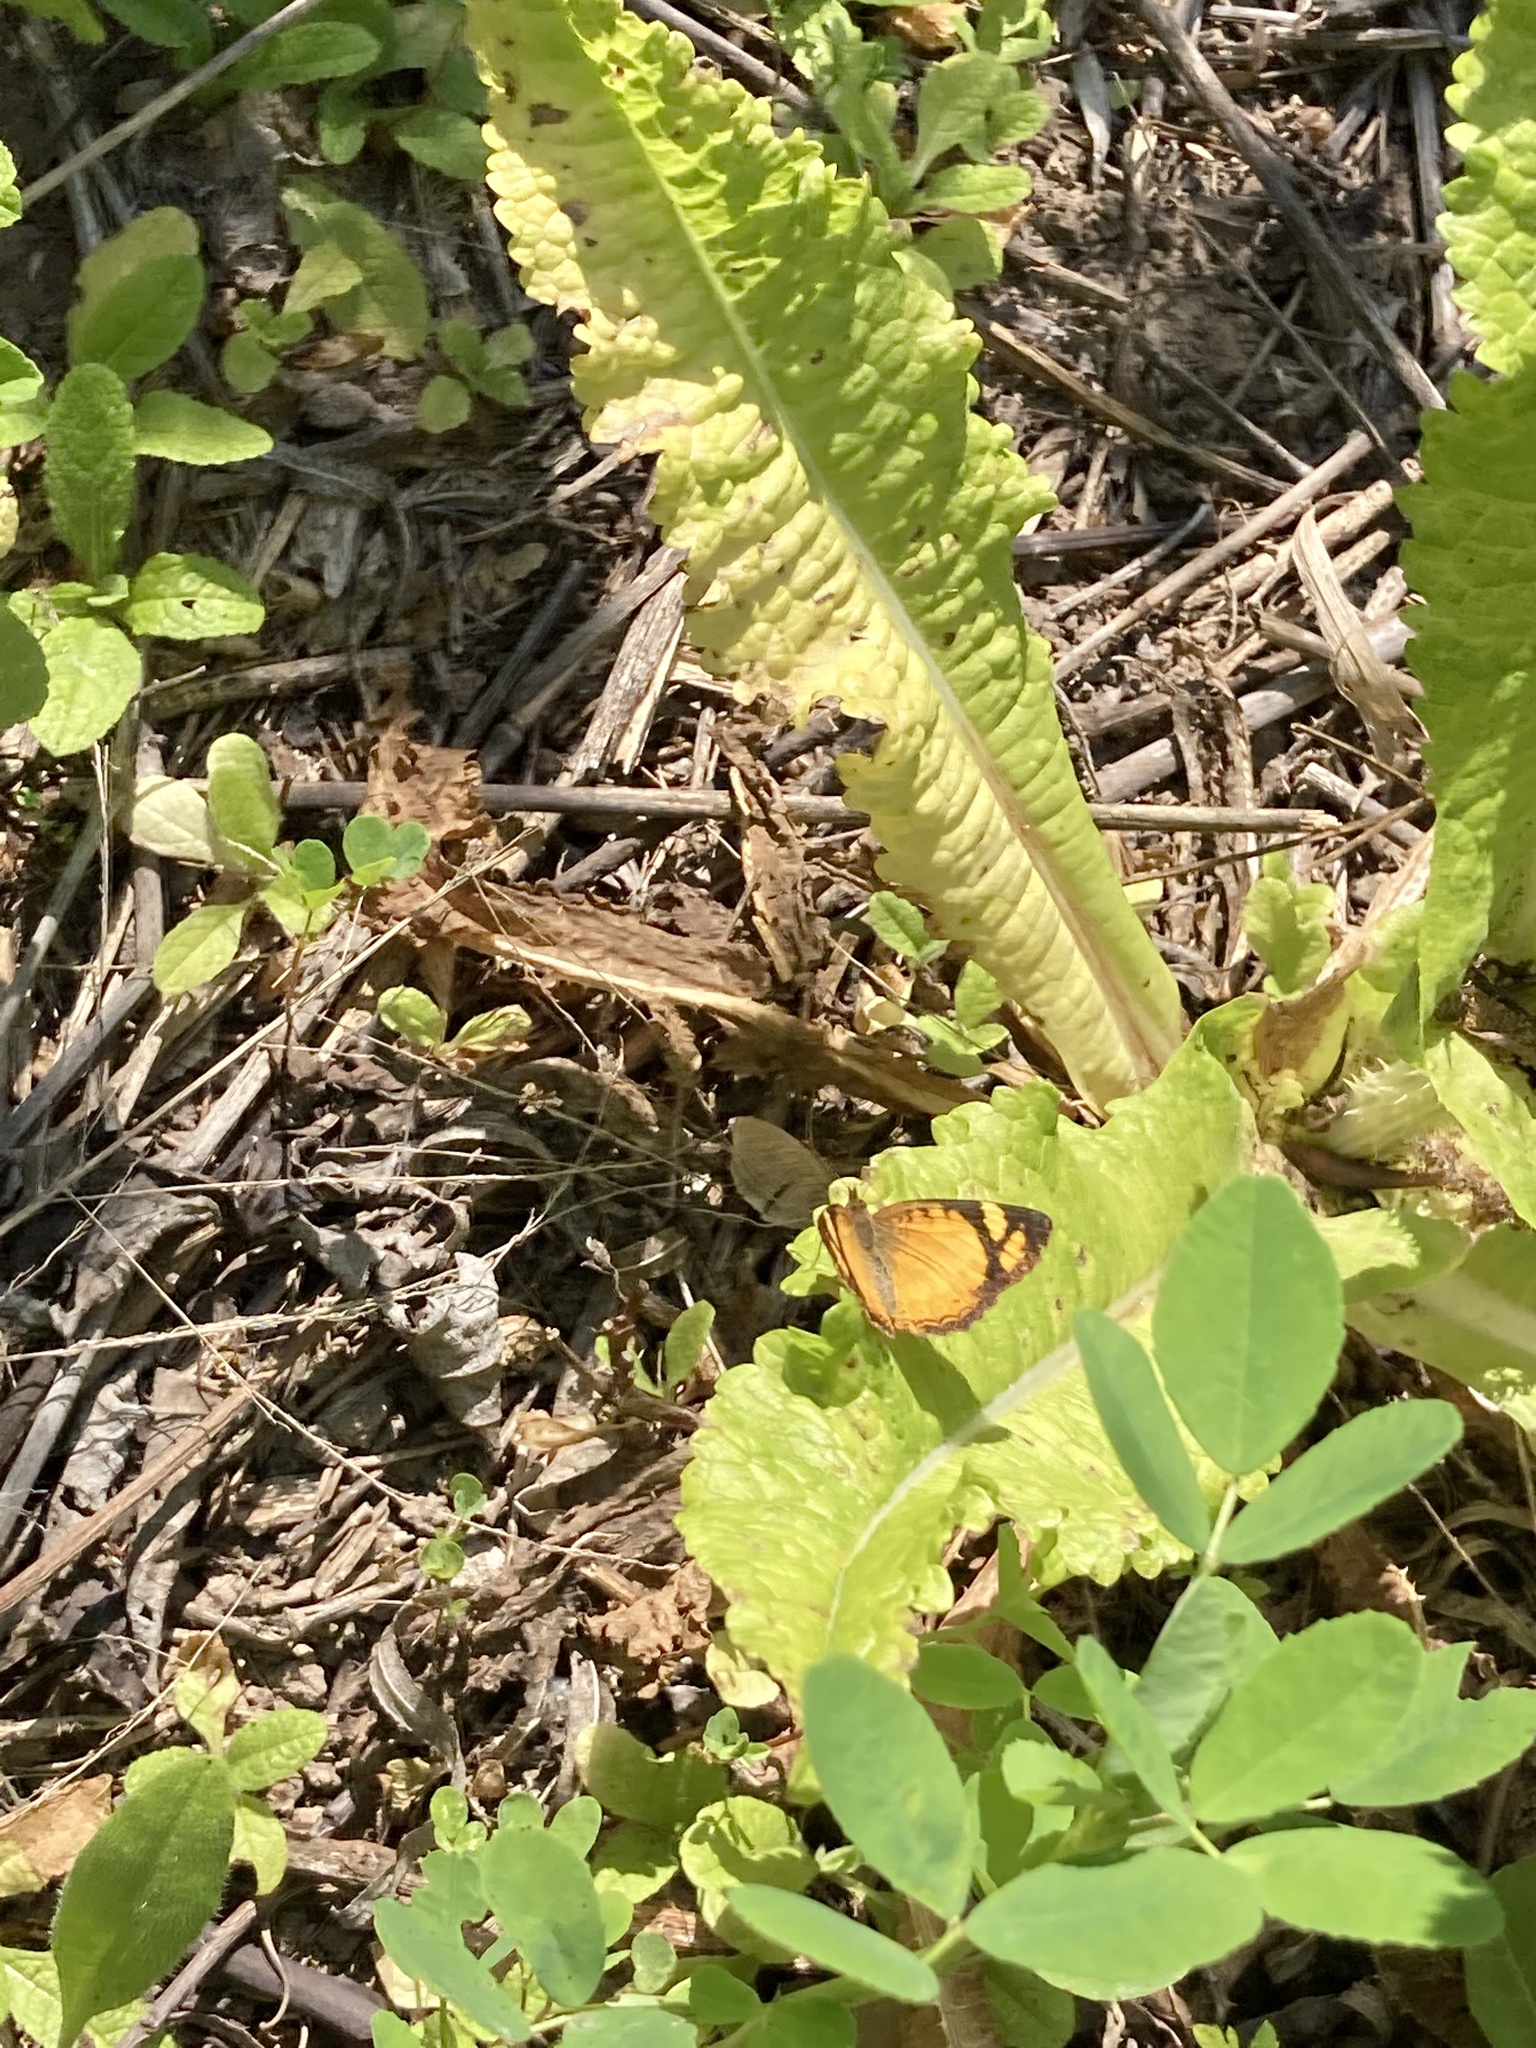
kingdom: Animalia
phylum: Arthropoda
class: Insecta
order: Lepidoptera
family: Nymphalidae
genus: Tegosa
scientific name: Tegosa claudina
